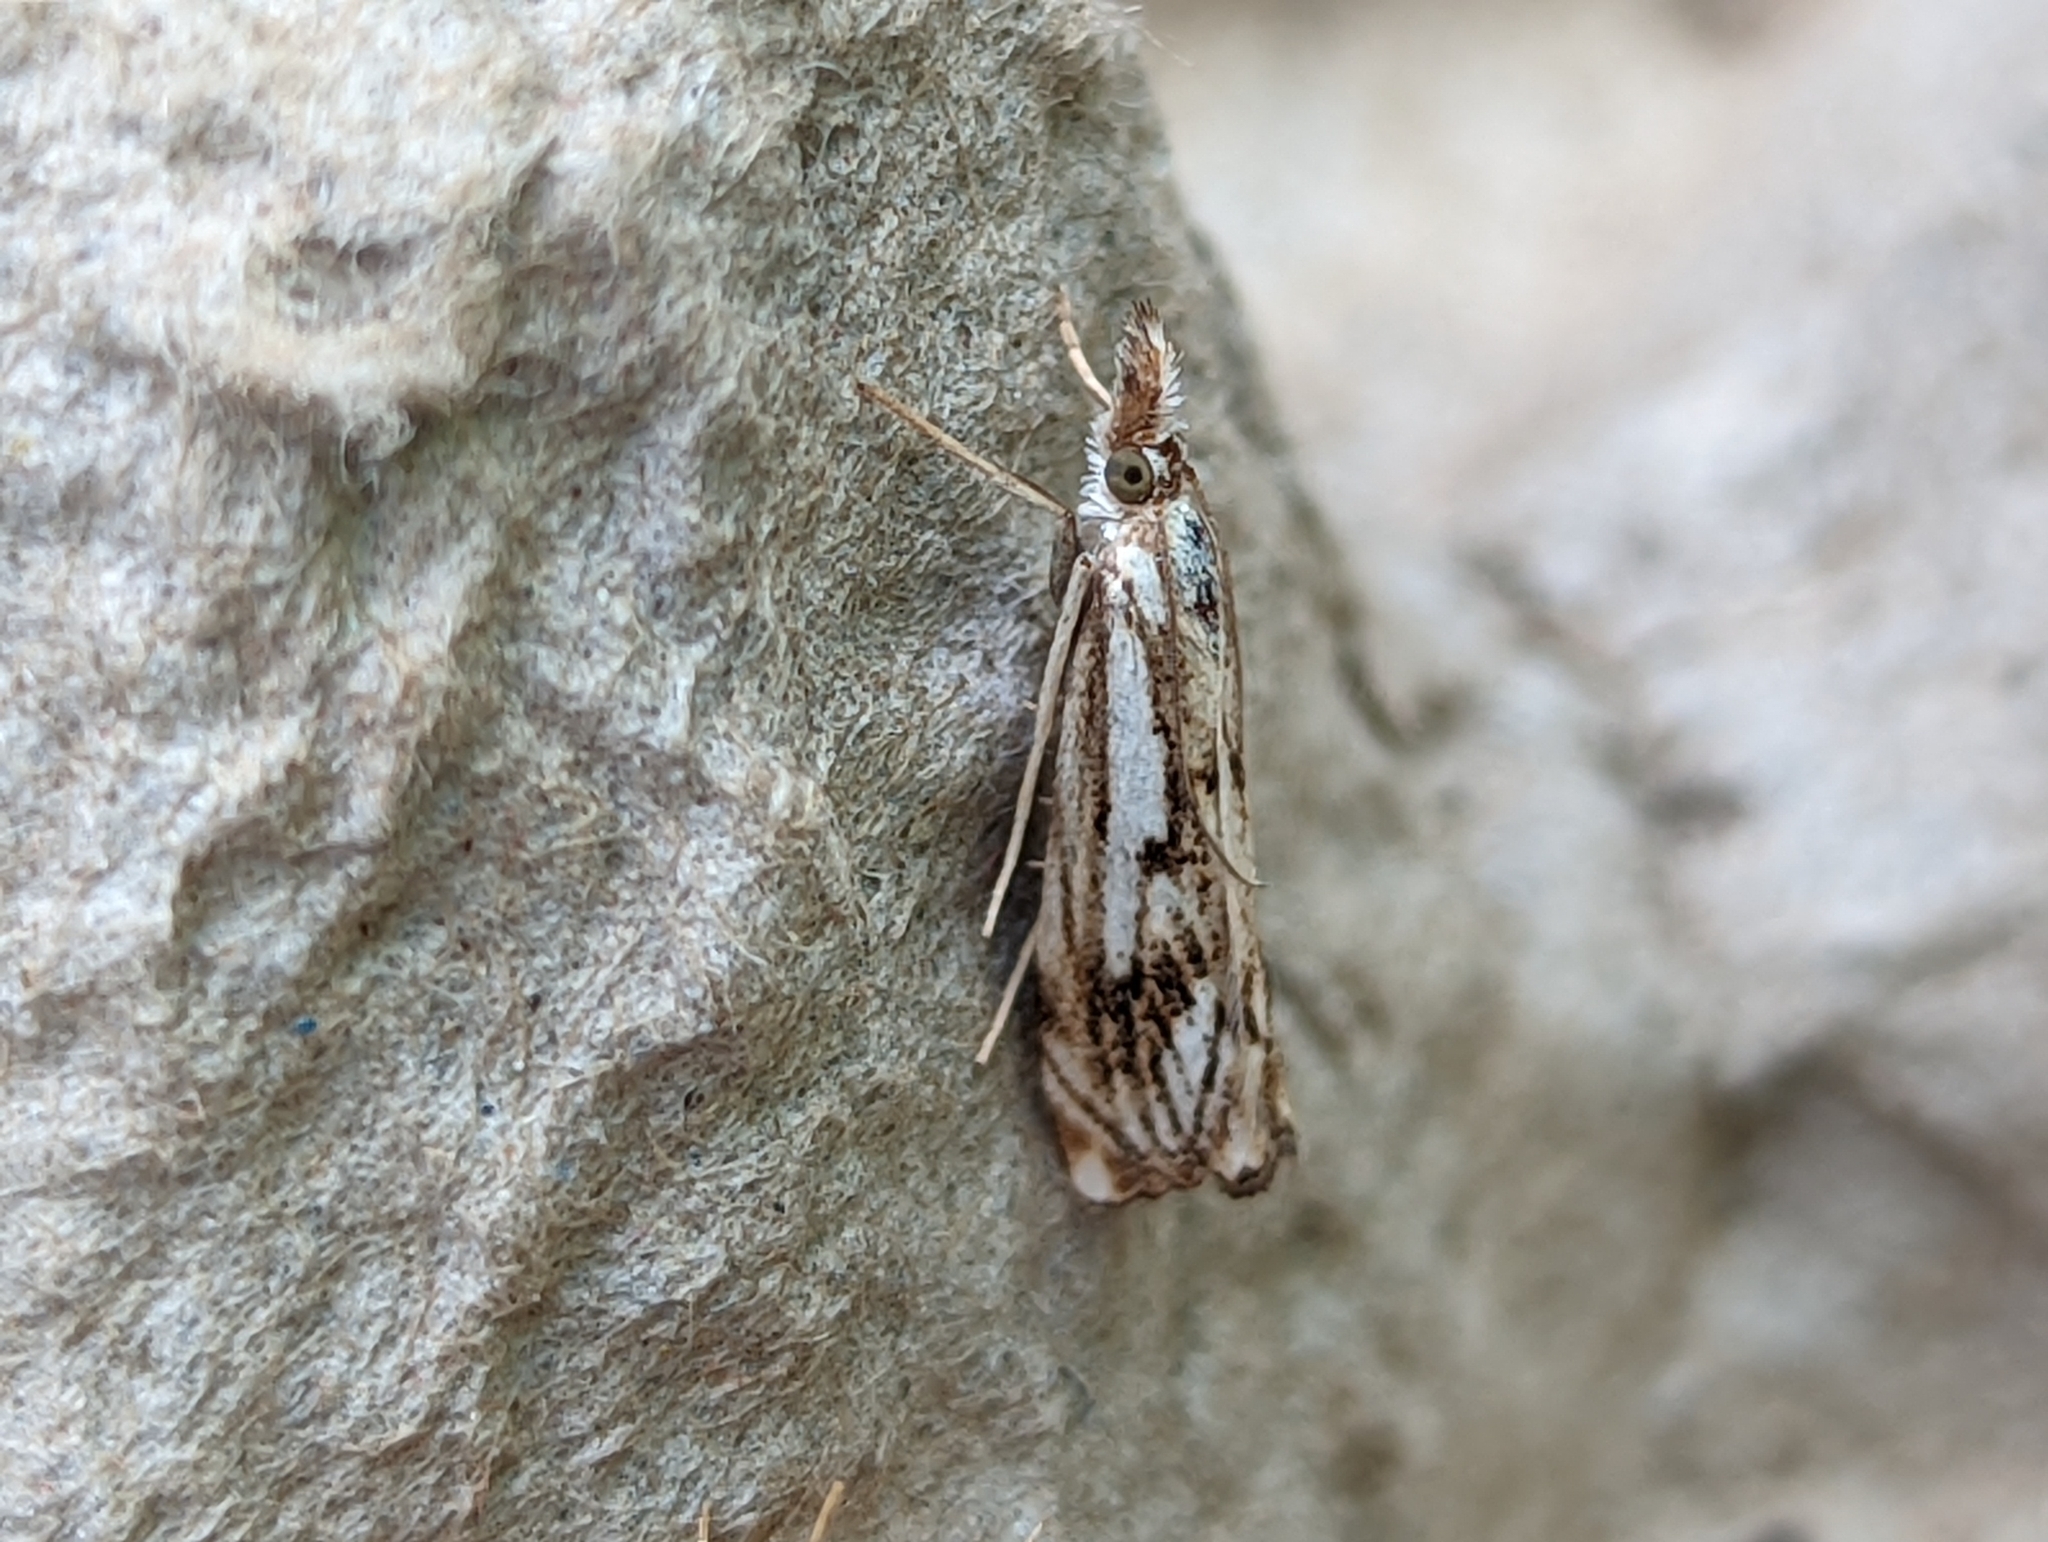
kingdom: Animalia
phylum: Arthropoda
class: Insecta
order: Lepidoptera
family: Crambidae
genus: Catoptria
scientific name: Catoptria falsella
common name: Chequered grass-veneer
